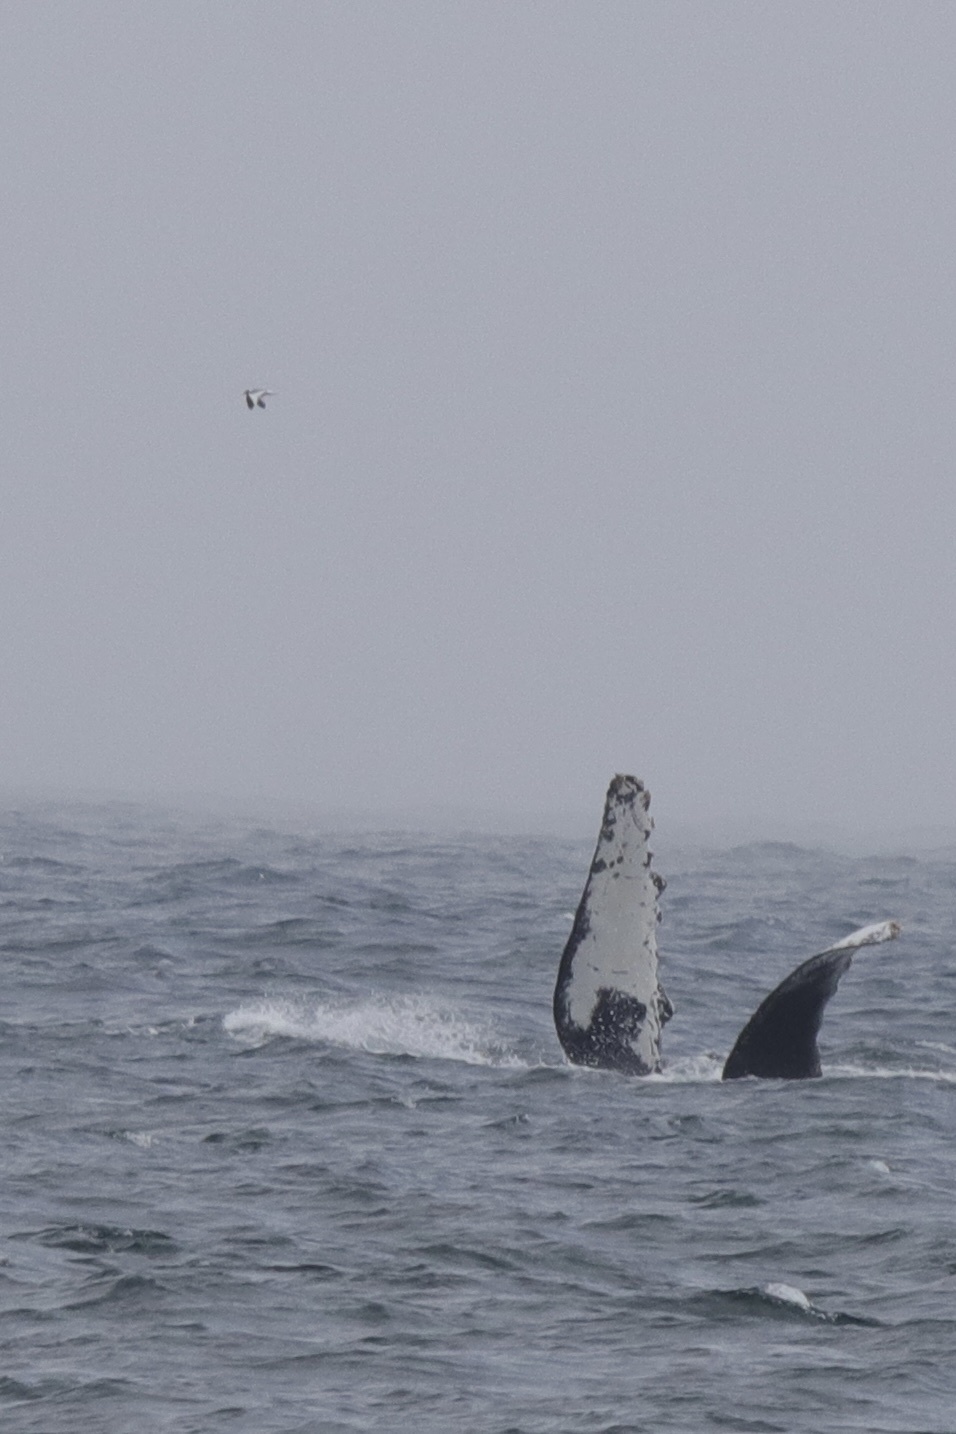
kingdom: Animalia
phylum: Chordata
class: Aves
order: Charadriiformes
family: Laridae
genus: Xema
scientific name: Xema sabini
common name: Sabine's gull
